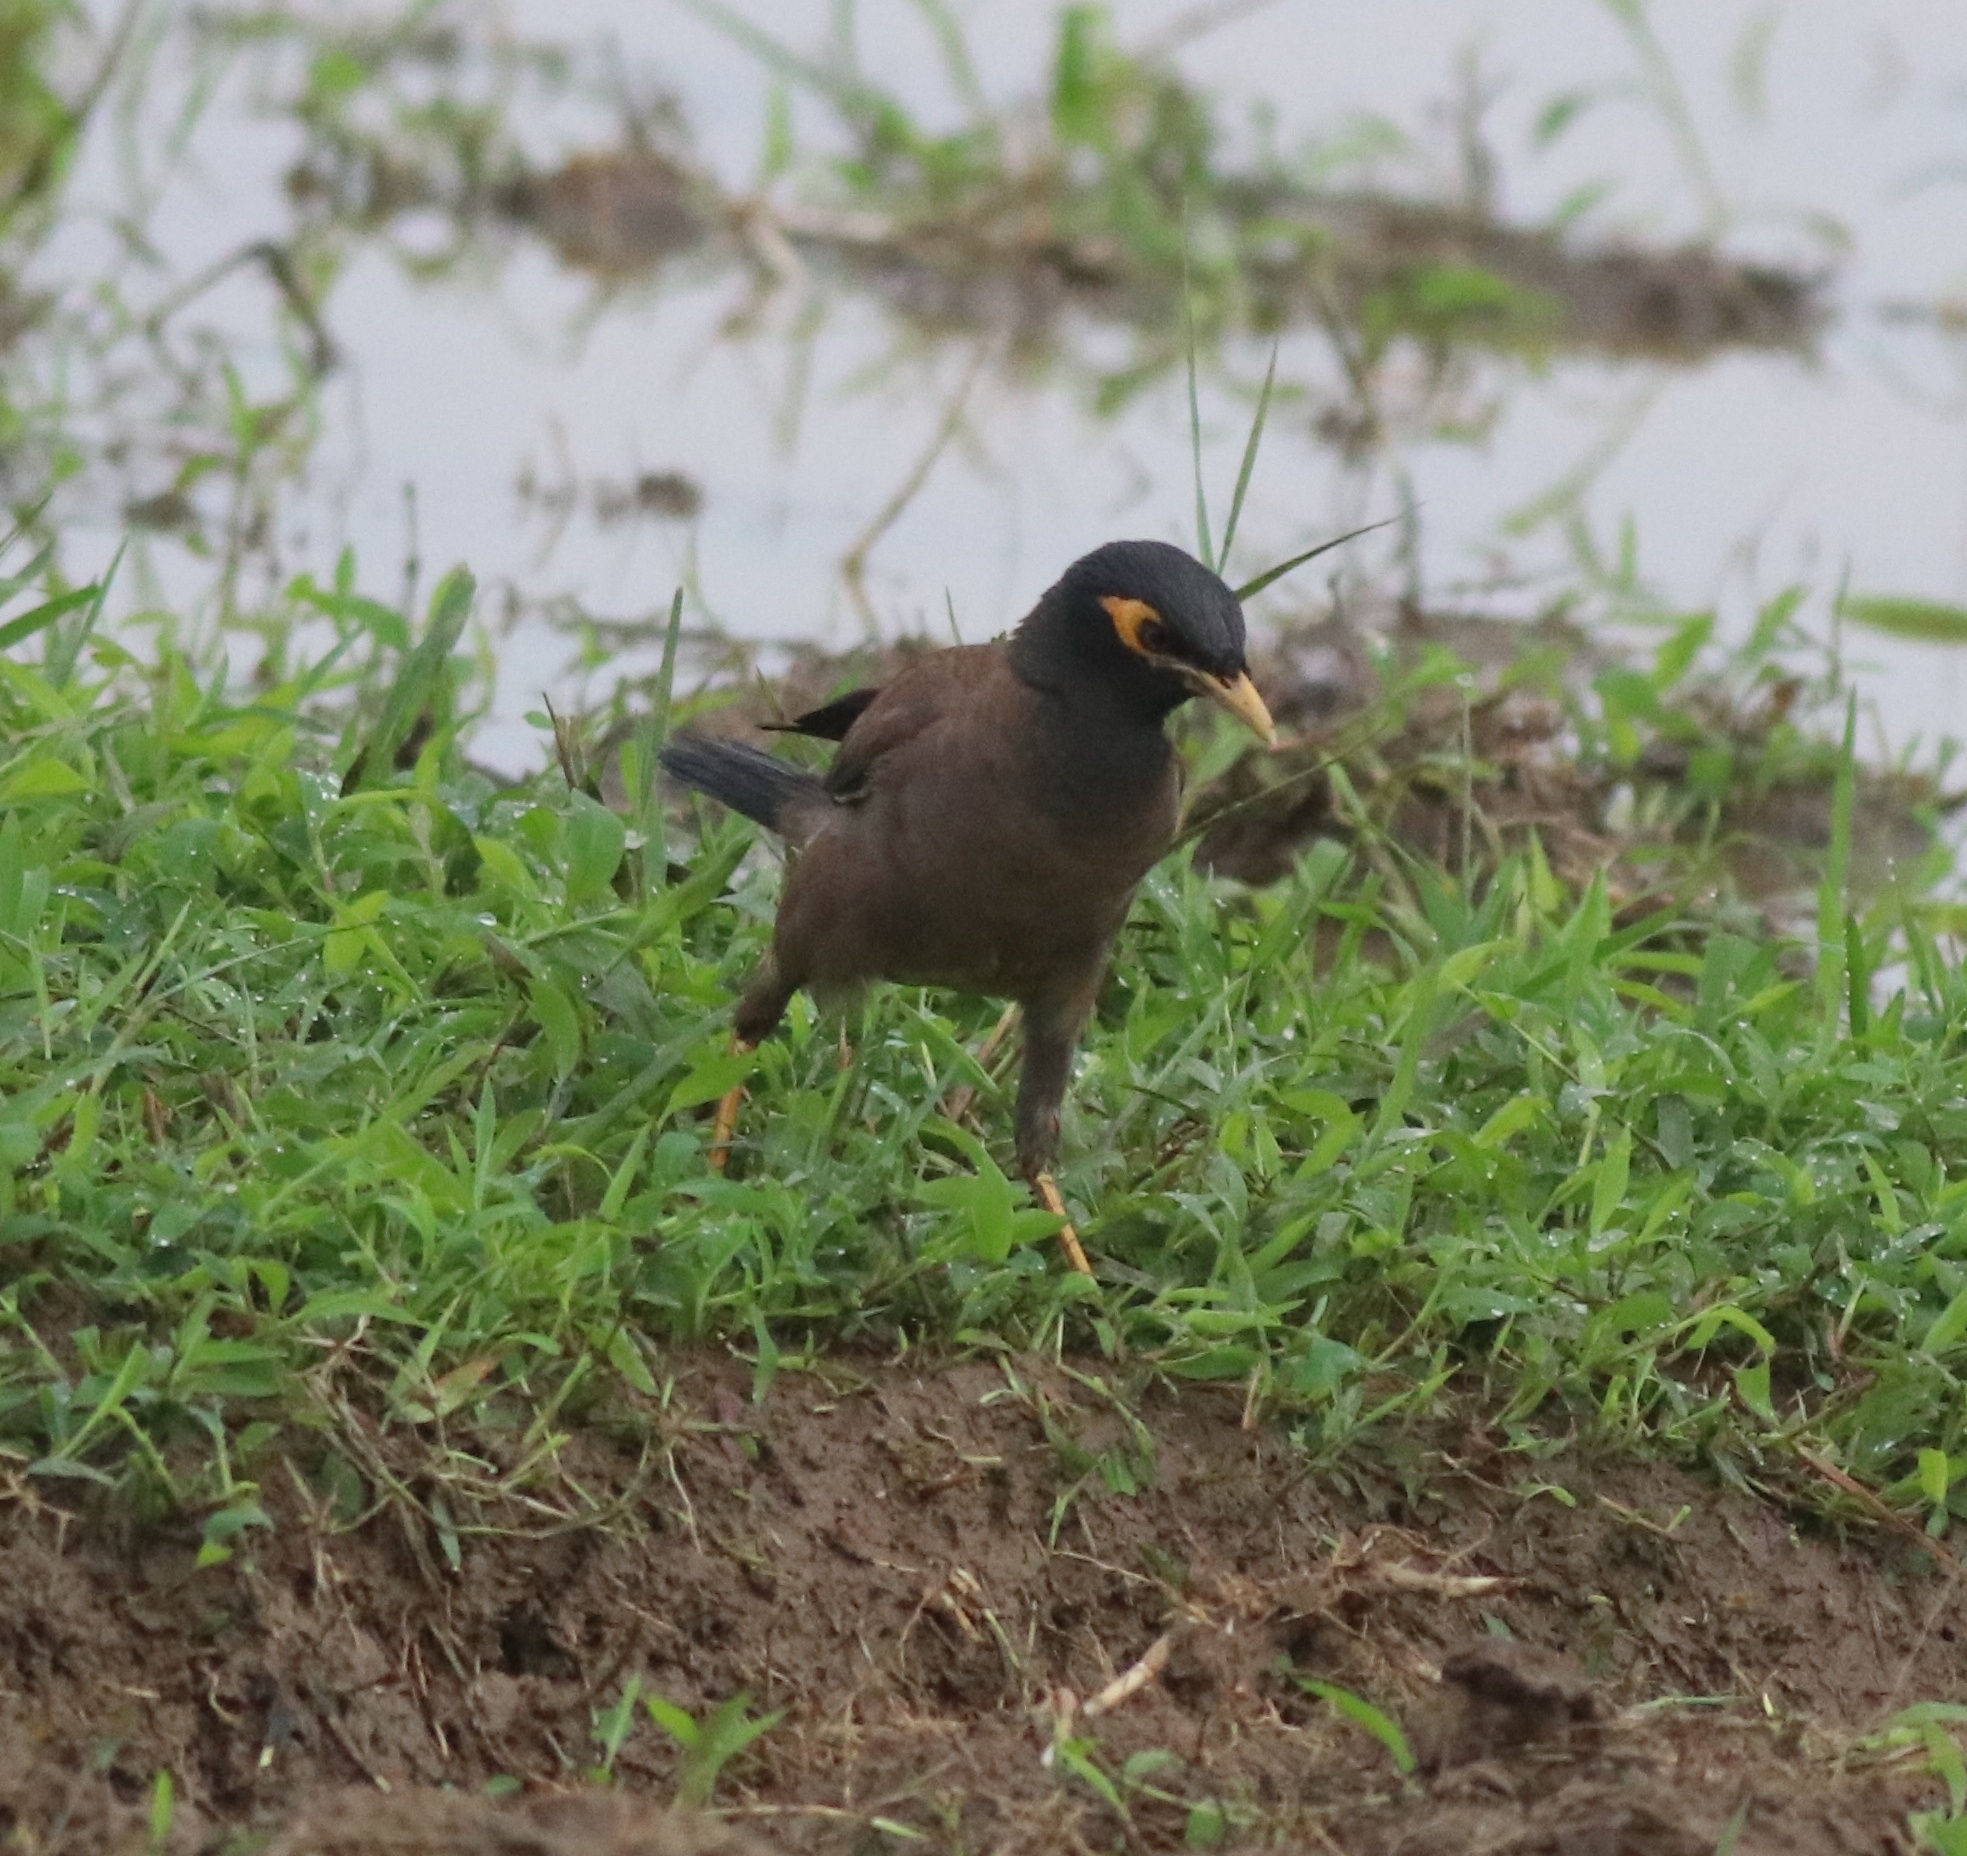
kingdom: Animalia
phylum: Chordata
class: Aves
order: Passeriformes
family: Sturnidae
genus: Acridotheres
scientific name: Acridotheres tristis
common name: Common myna
